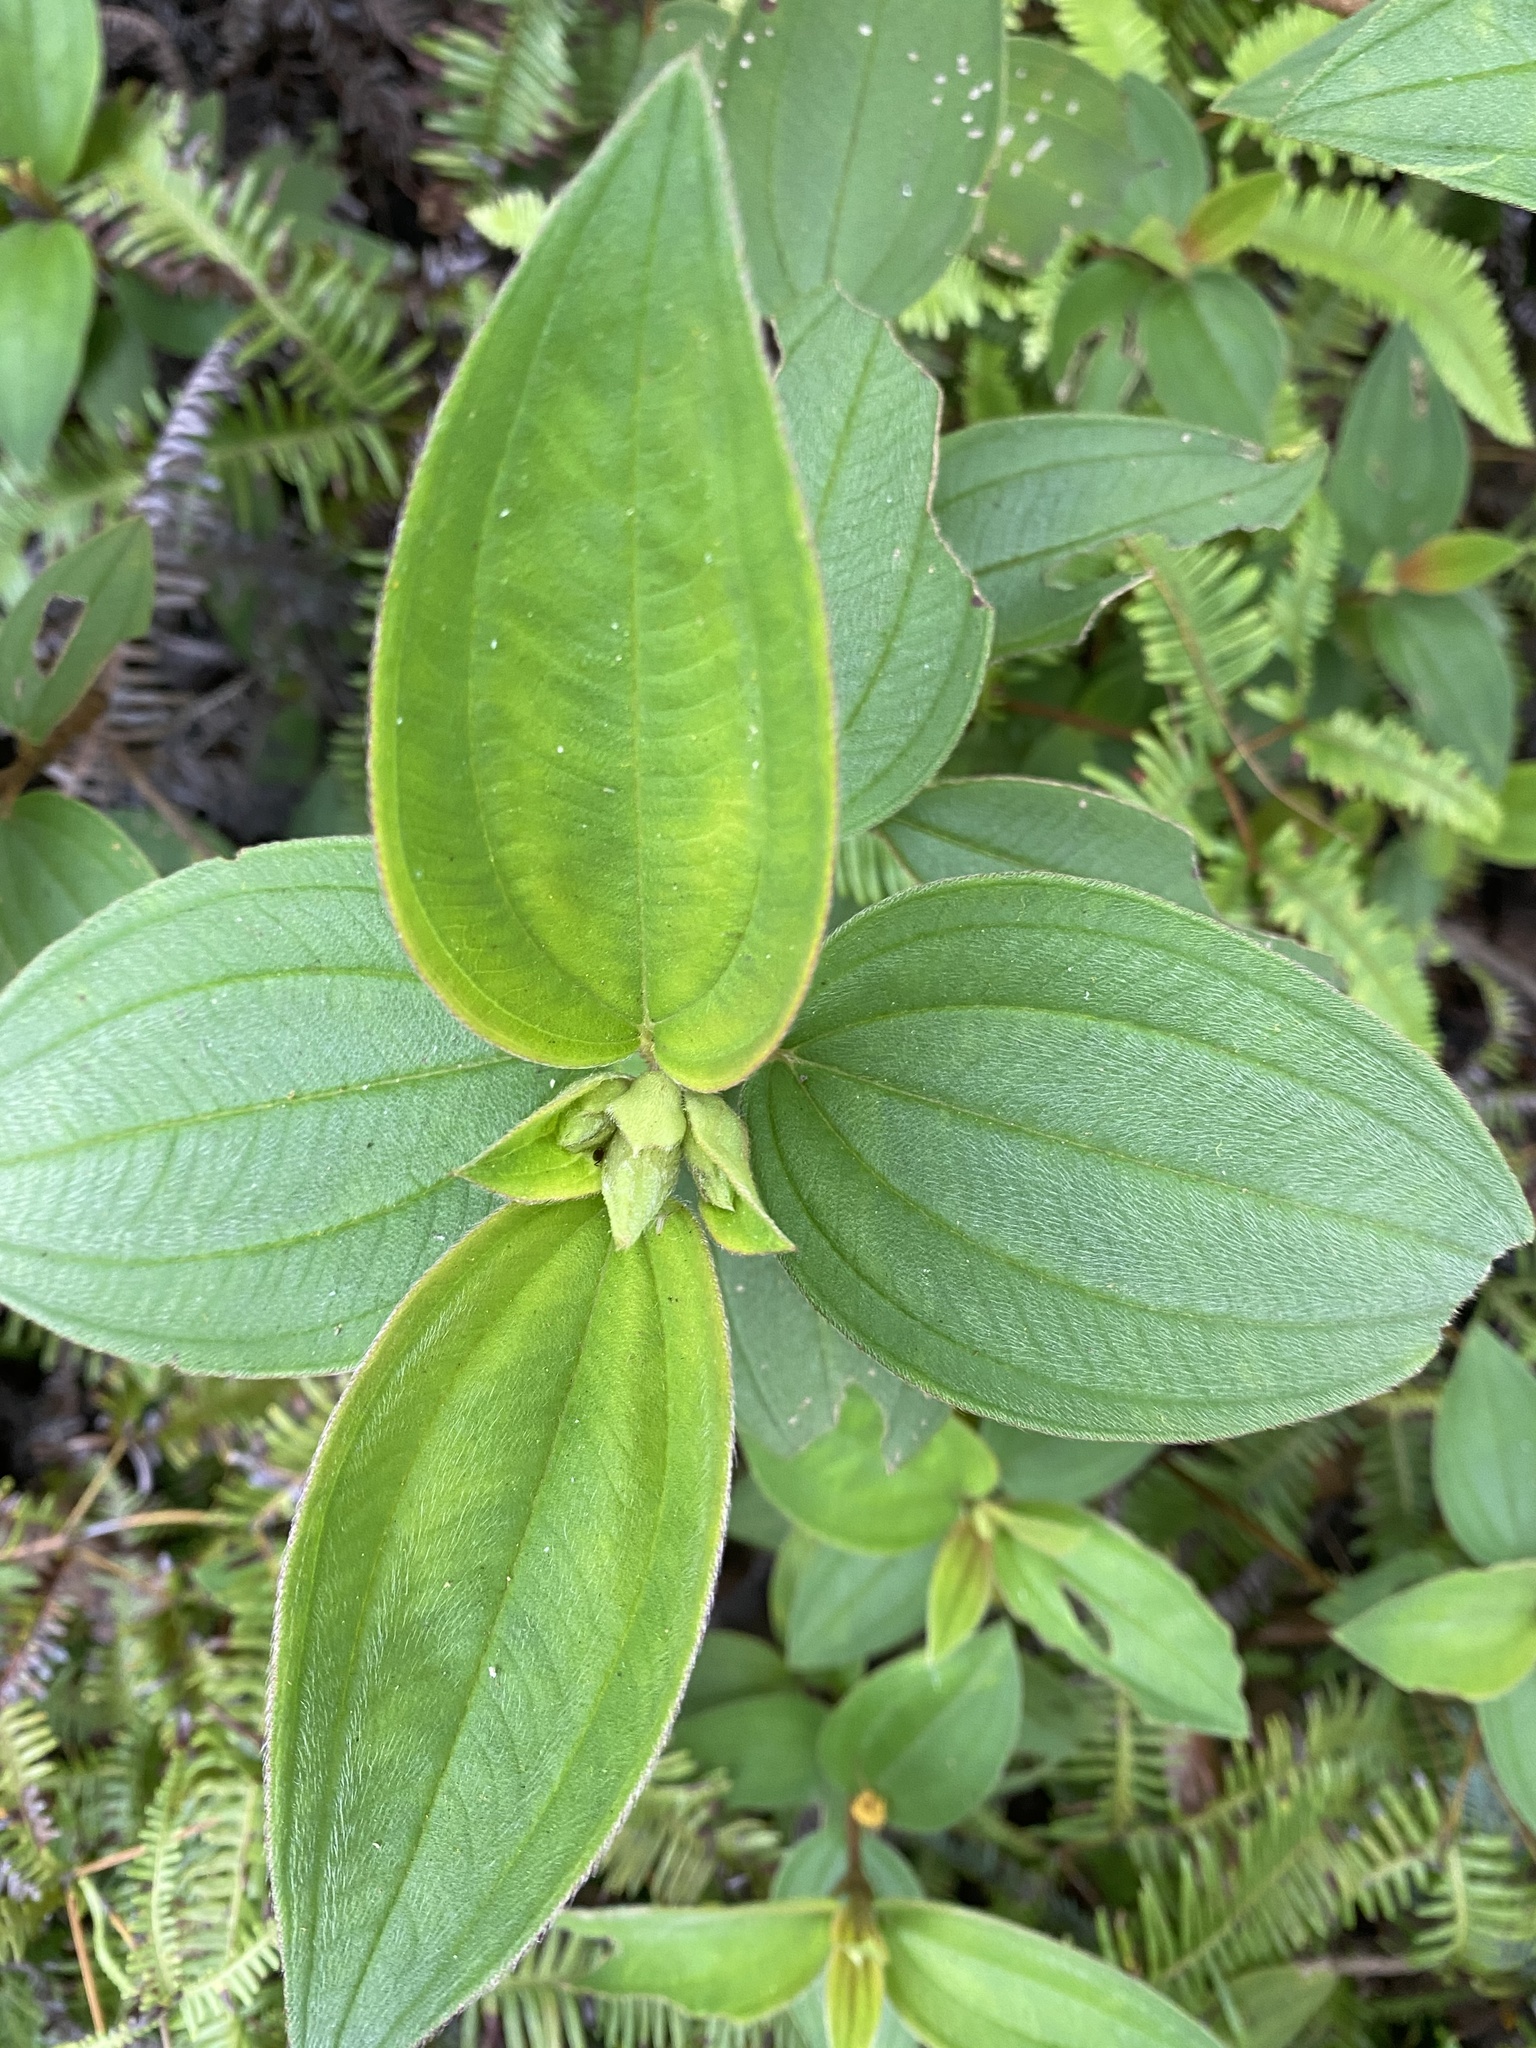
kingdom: Plantae
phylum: Tracheophyta
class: Magnoliopsida
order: Myrtales
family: Melastomataceae
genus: Melastoma
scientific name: Melastoma malabathricum
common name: Indian-rhododendron
